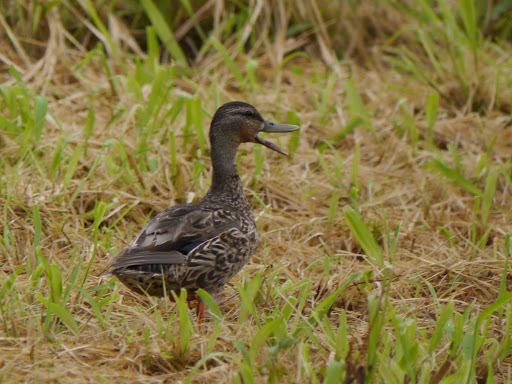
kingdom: Animalia
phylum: Chordata
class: Aves
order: Anseriformes
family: Anatidae
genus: Anas
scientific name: Anas
